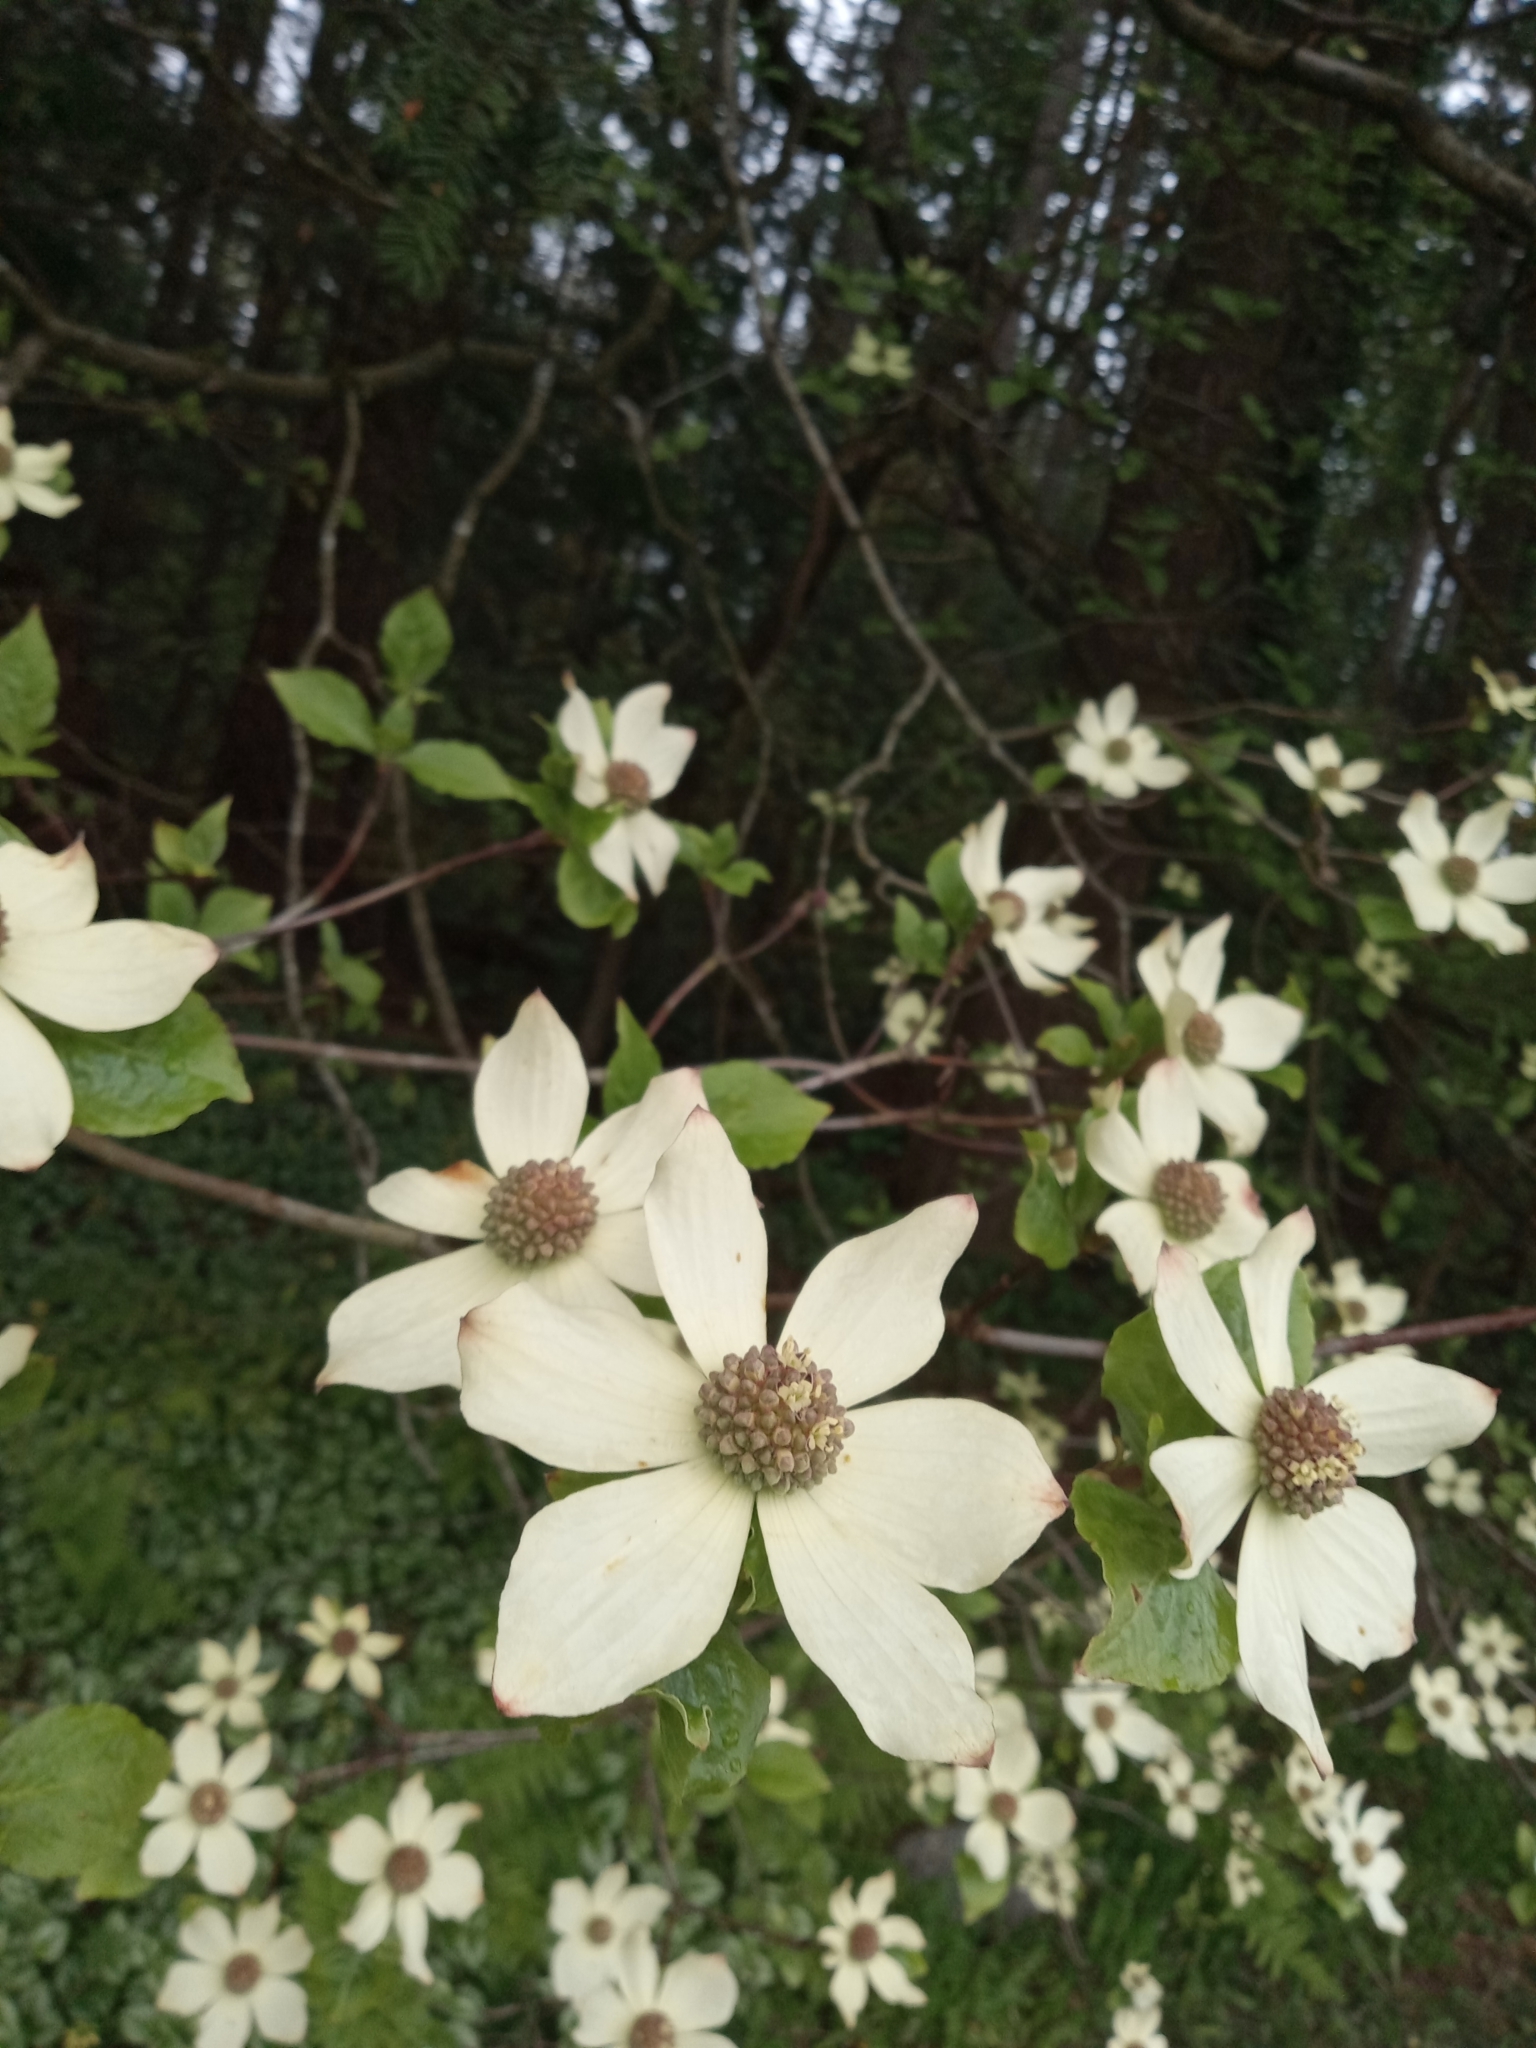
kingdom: Plantae
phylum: Tracheophyta
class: Magnoliopsida
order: Cornales
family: Cornaceae
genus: Cornus
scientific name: Cornus nuttallii
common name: Pacific dogwood
